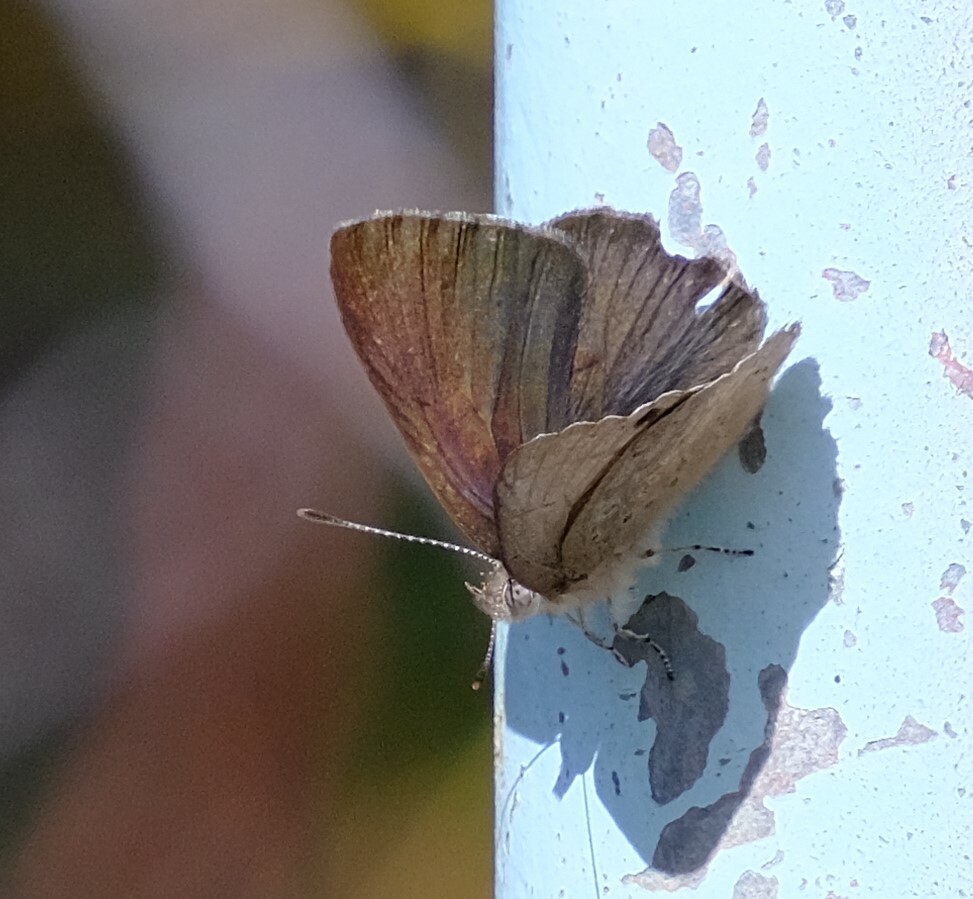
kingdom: Animalia
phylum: Arthropoda
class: Insecta
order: Lepidoptera
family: Lycaenidae
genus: Candalides
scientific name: Candalides
